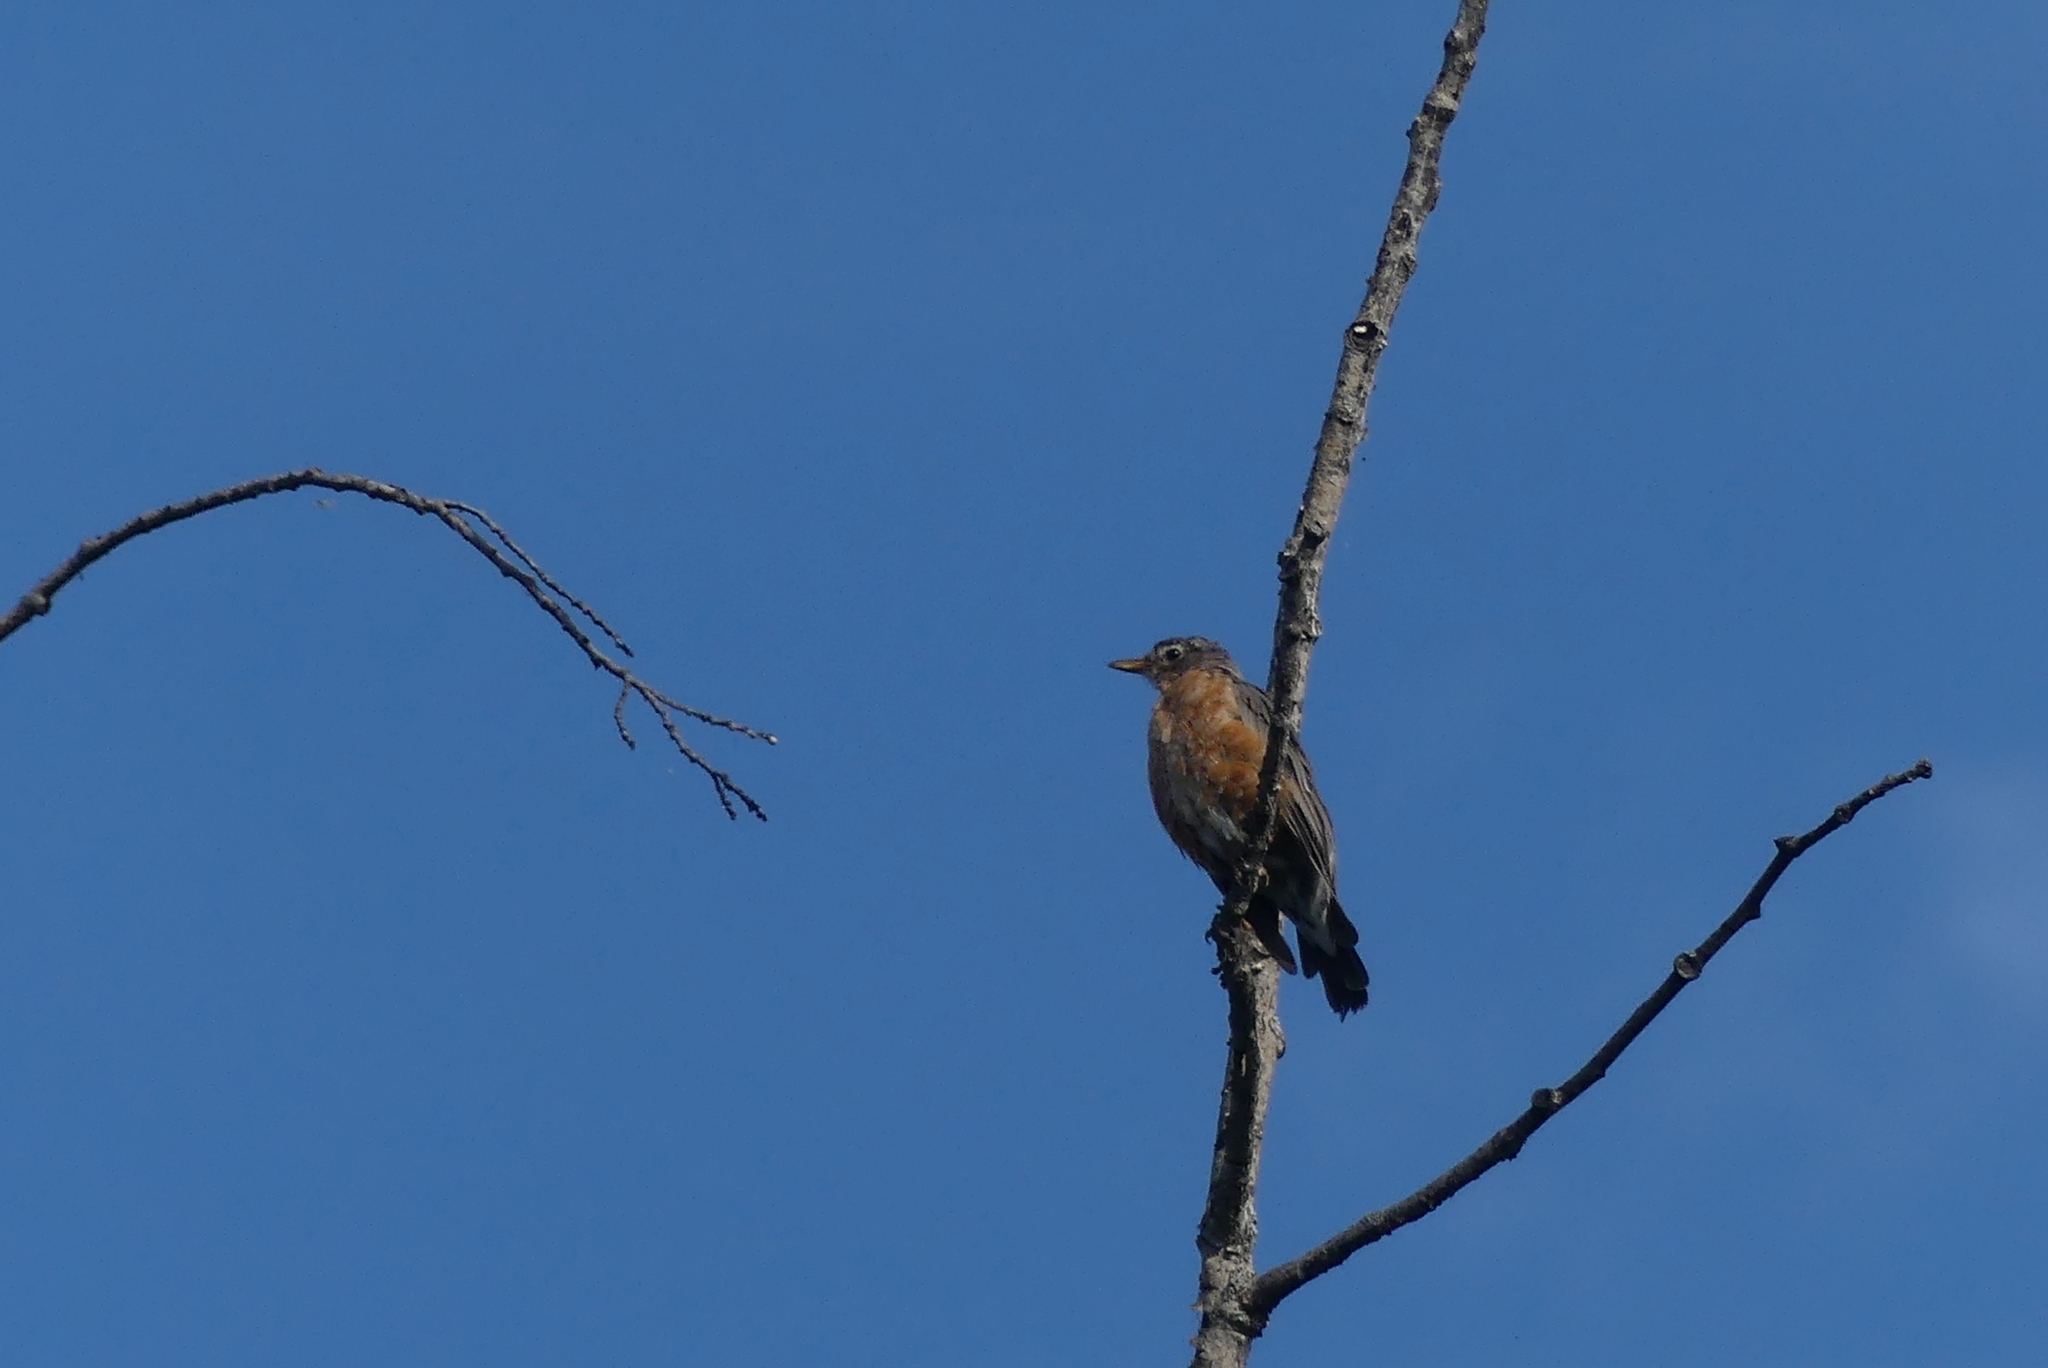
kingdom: Animalia
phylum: Chordata
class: Aves
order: Passeriformes
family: Turdidae
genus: Turdus
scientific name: Turdus migratorius
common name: American robin
